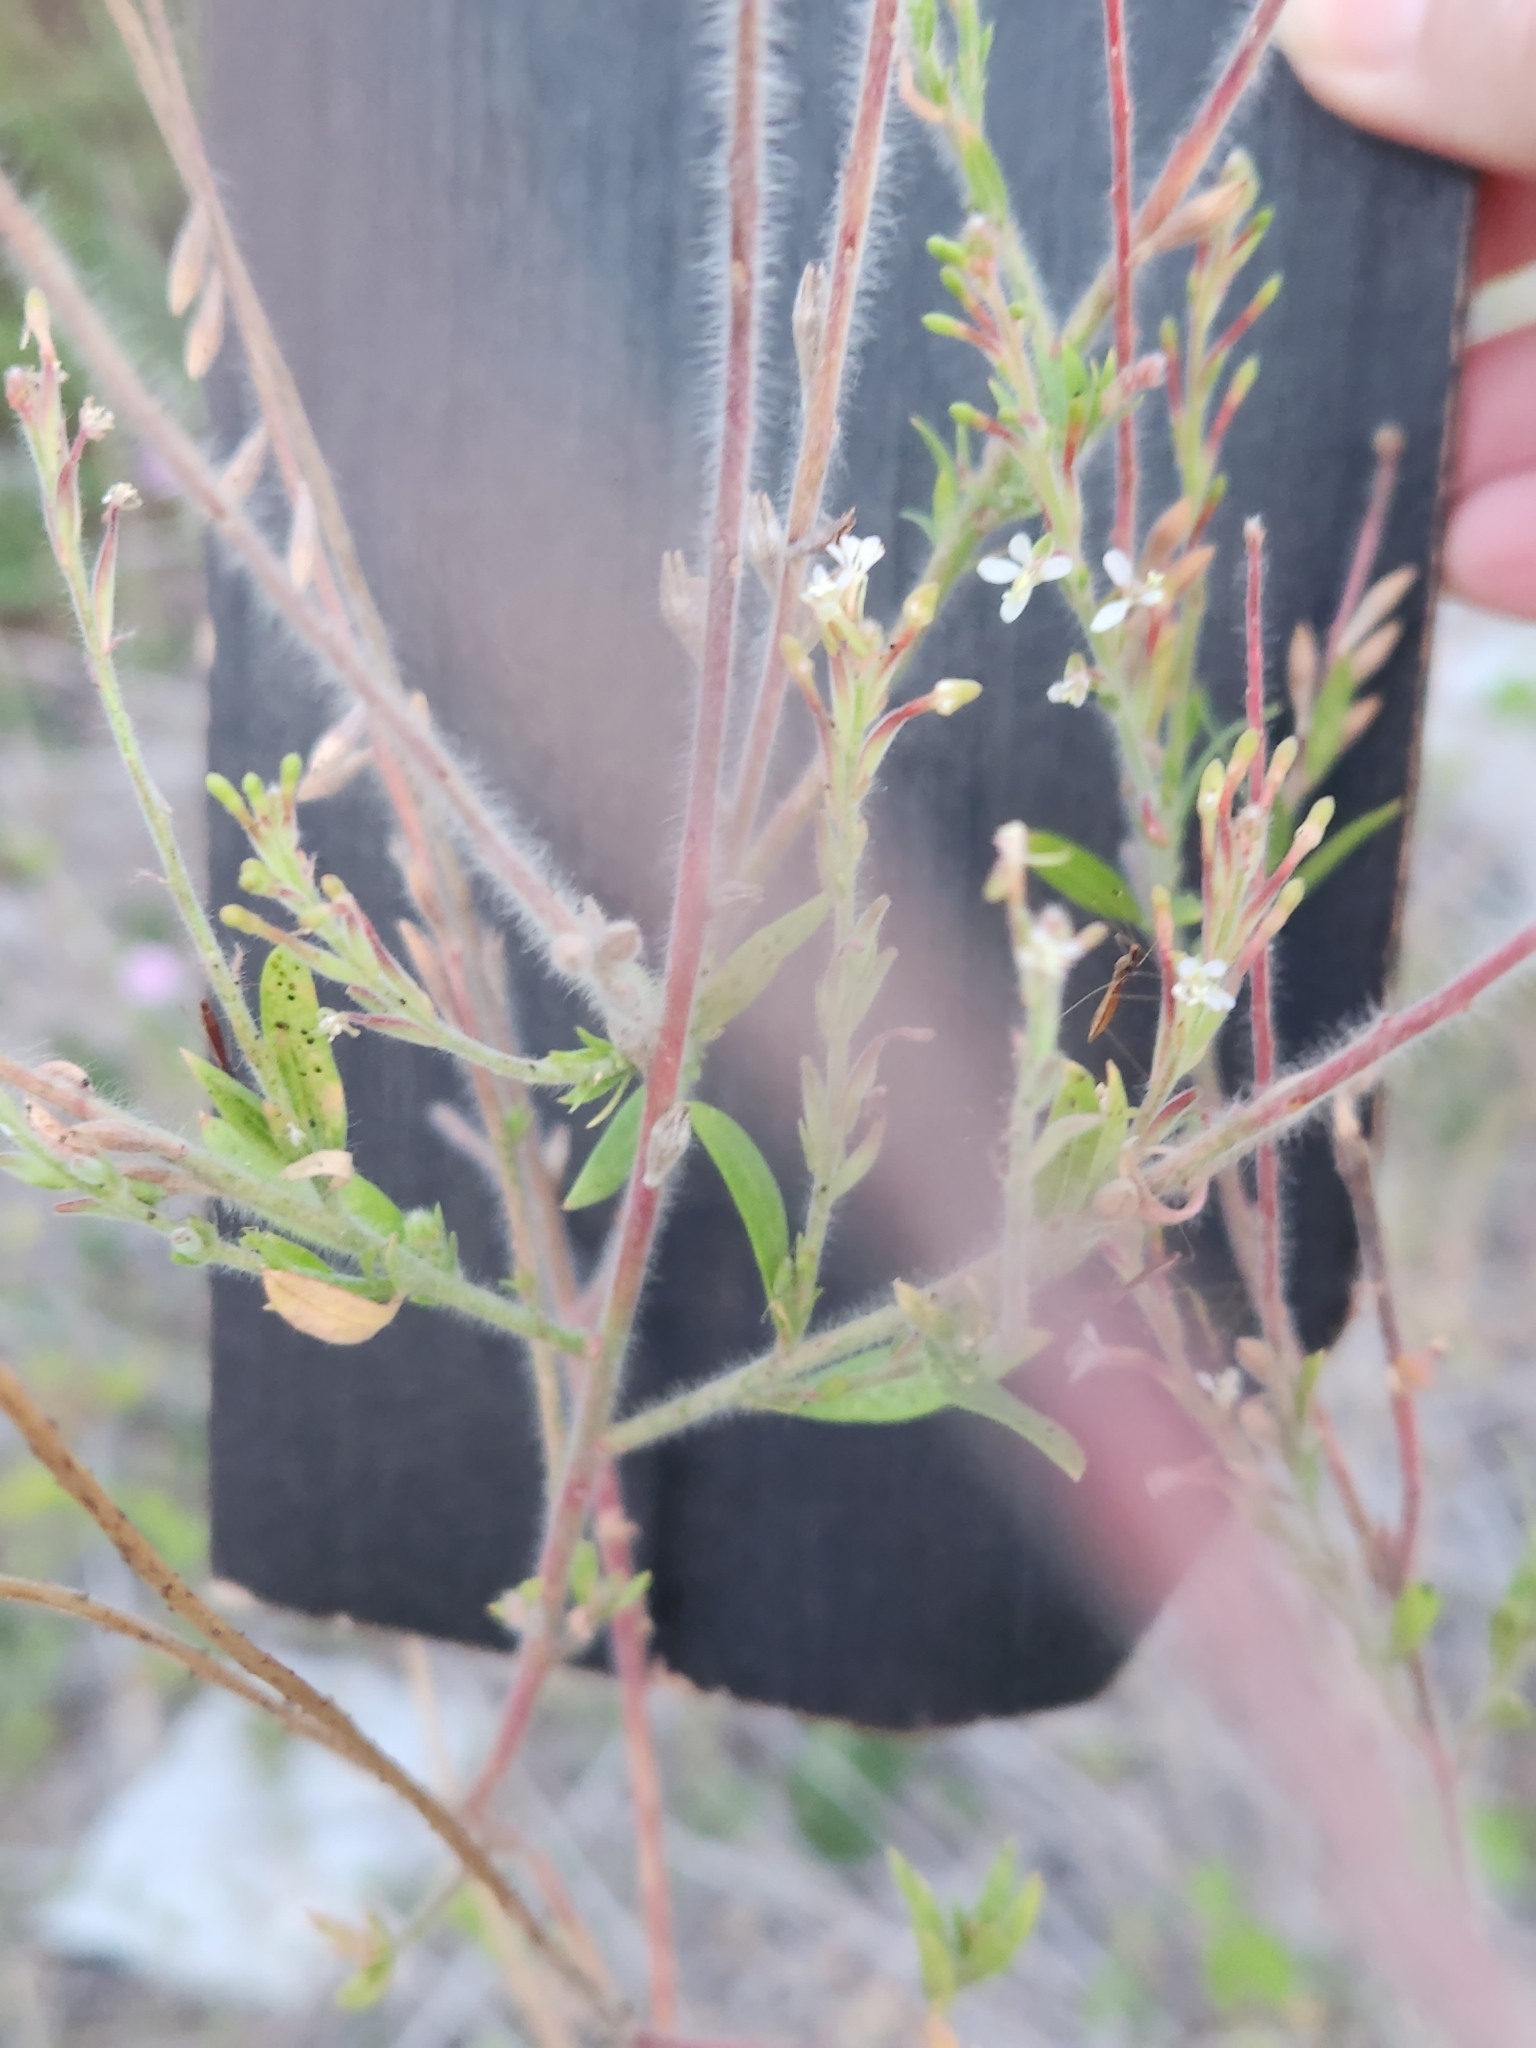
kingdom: Plantae
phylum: Tracheophyta
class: Magnoliopsida
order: Myrtales
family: Onagraceae
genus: Oenothera
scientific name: Oenothera curtiflora
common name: Velvetweed
